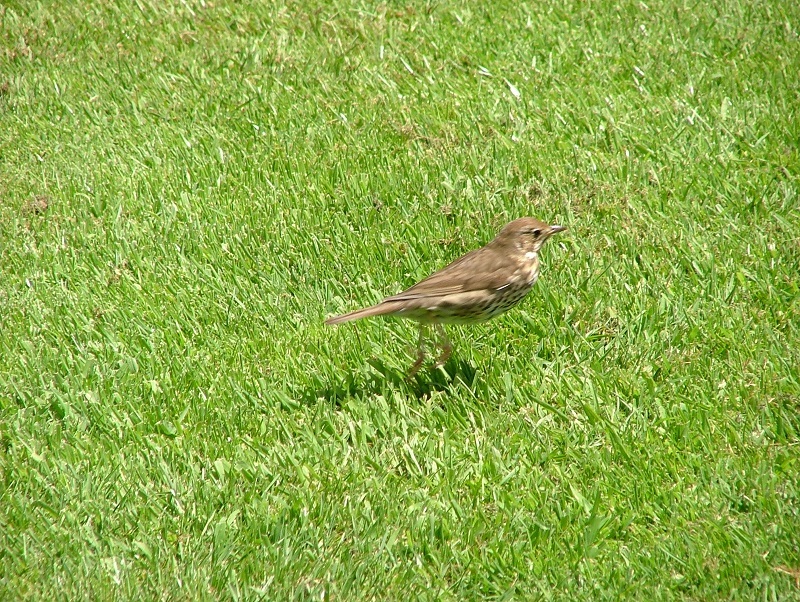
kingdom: Animalia
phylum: Chordata
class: Aves
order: Passeriformes
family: Turdidae
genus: Turdus
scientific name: Turdus philomelos
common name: Song thrush
